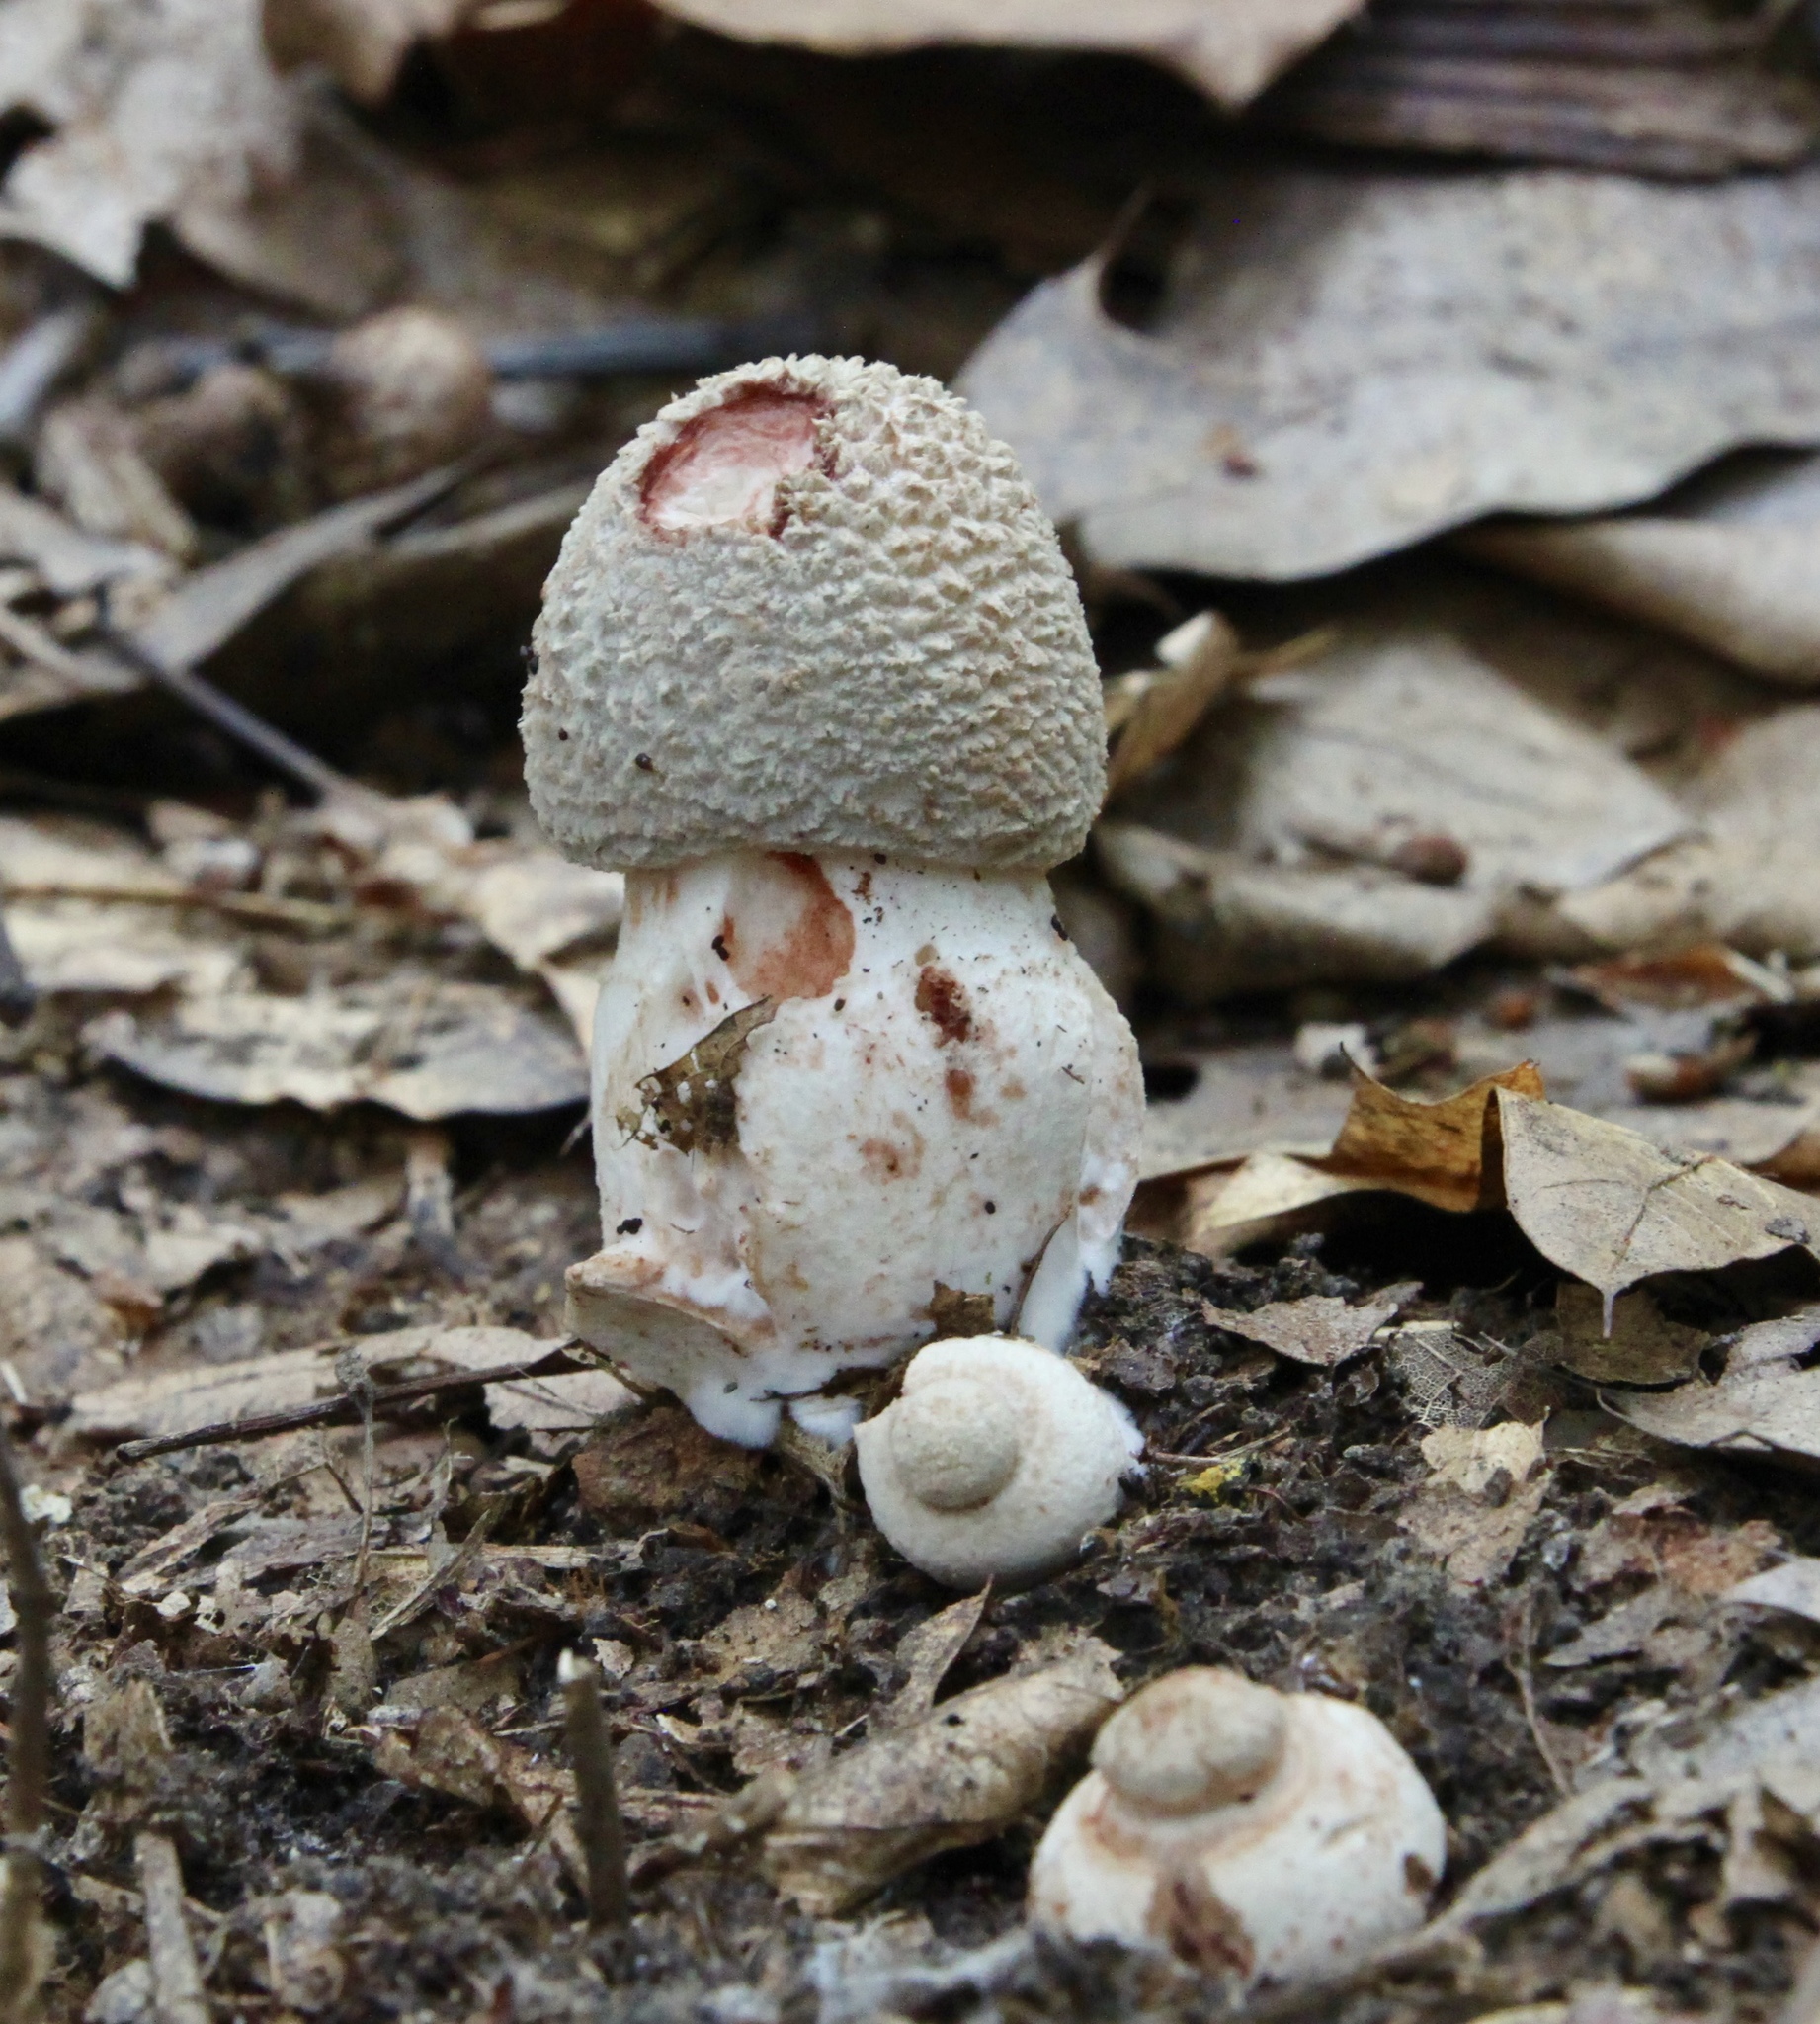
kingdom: Fungi
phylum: Basidiomycota
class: Agaricomycetes
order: Agaricales
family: Amanitaceae
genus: Amanita
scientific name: Amanita rubescens
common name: Blusher
